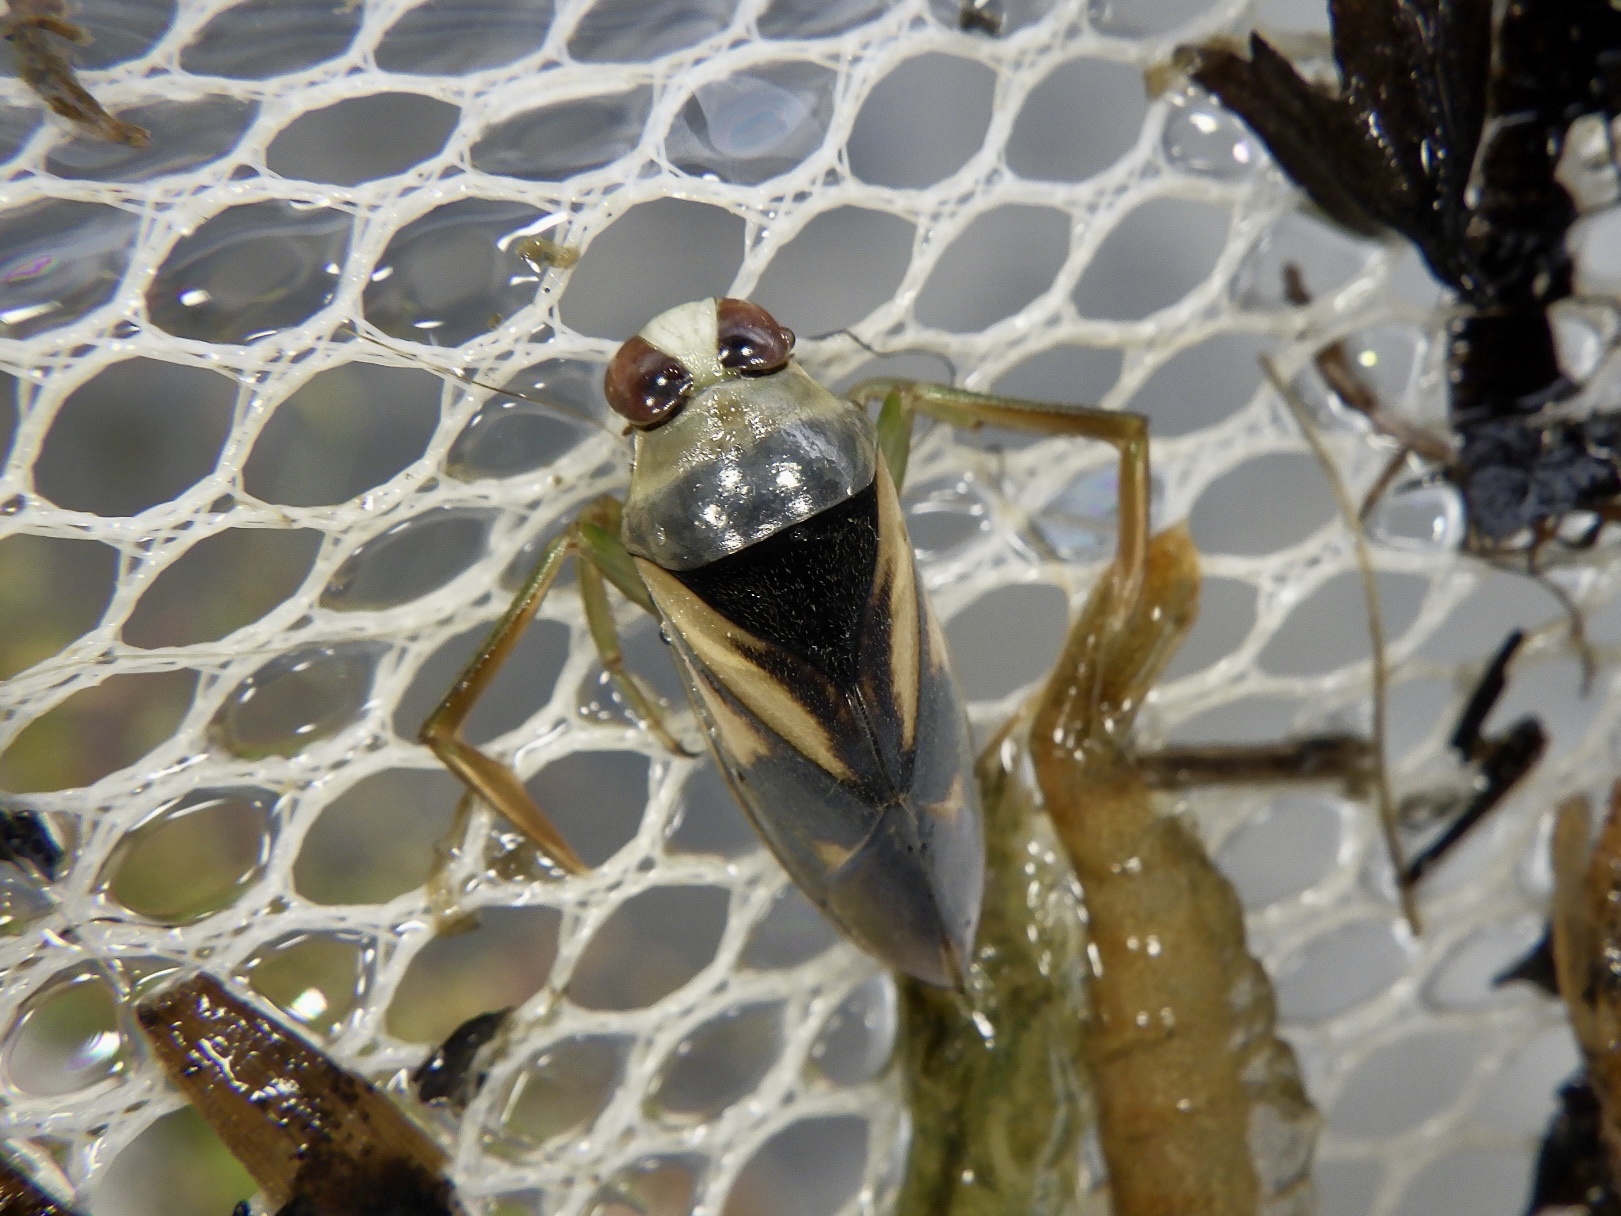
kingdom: Animalia
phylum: Arthropoda
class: Insecta
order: Hemiptera
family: Notonectidae
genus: Notonecta
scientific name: Notonecta triguttata
